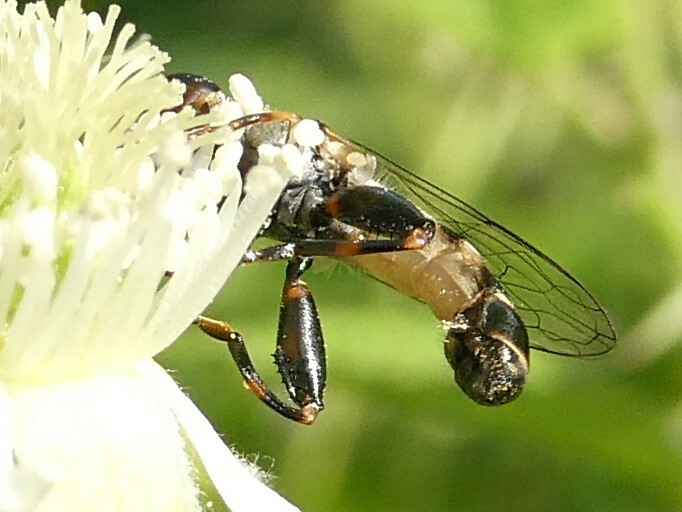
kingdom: Animalia
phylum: Arthropoda
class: Insecta
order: Diptera
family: Syrphidae
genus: Syritta
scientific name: Syritta pipiens
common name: Hover fly
